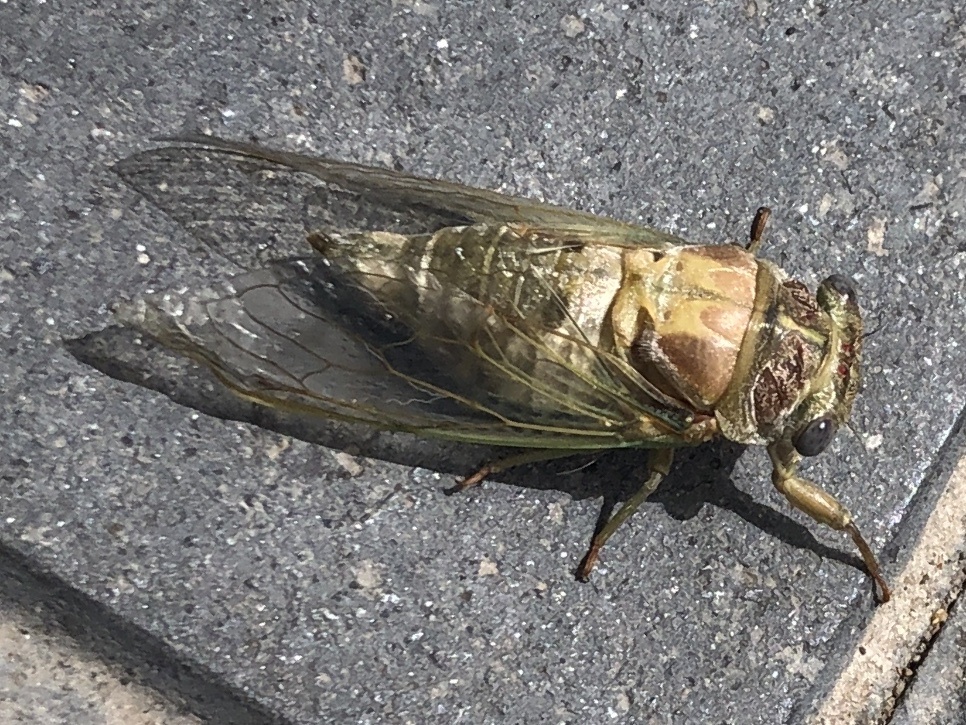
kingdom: Animalia
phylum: Arthropoda
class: Insecta
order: Hemiptera
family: Cicadidae
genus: Lyristes
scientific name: Lyristes plebejus
